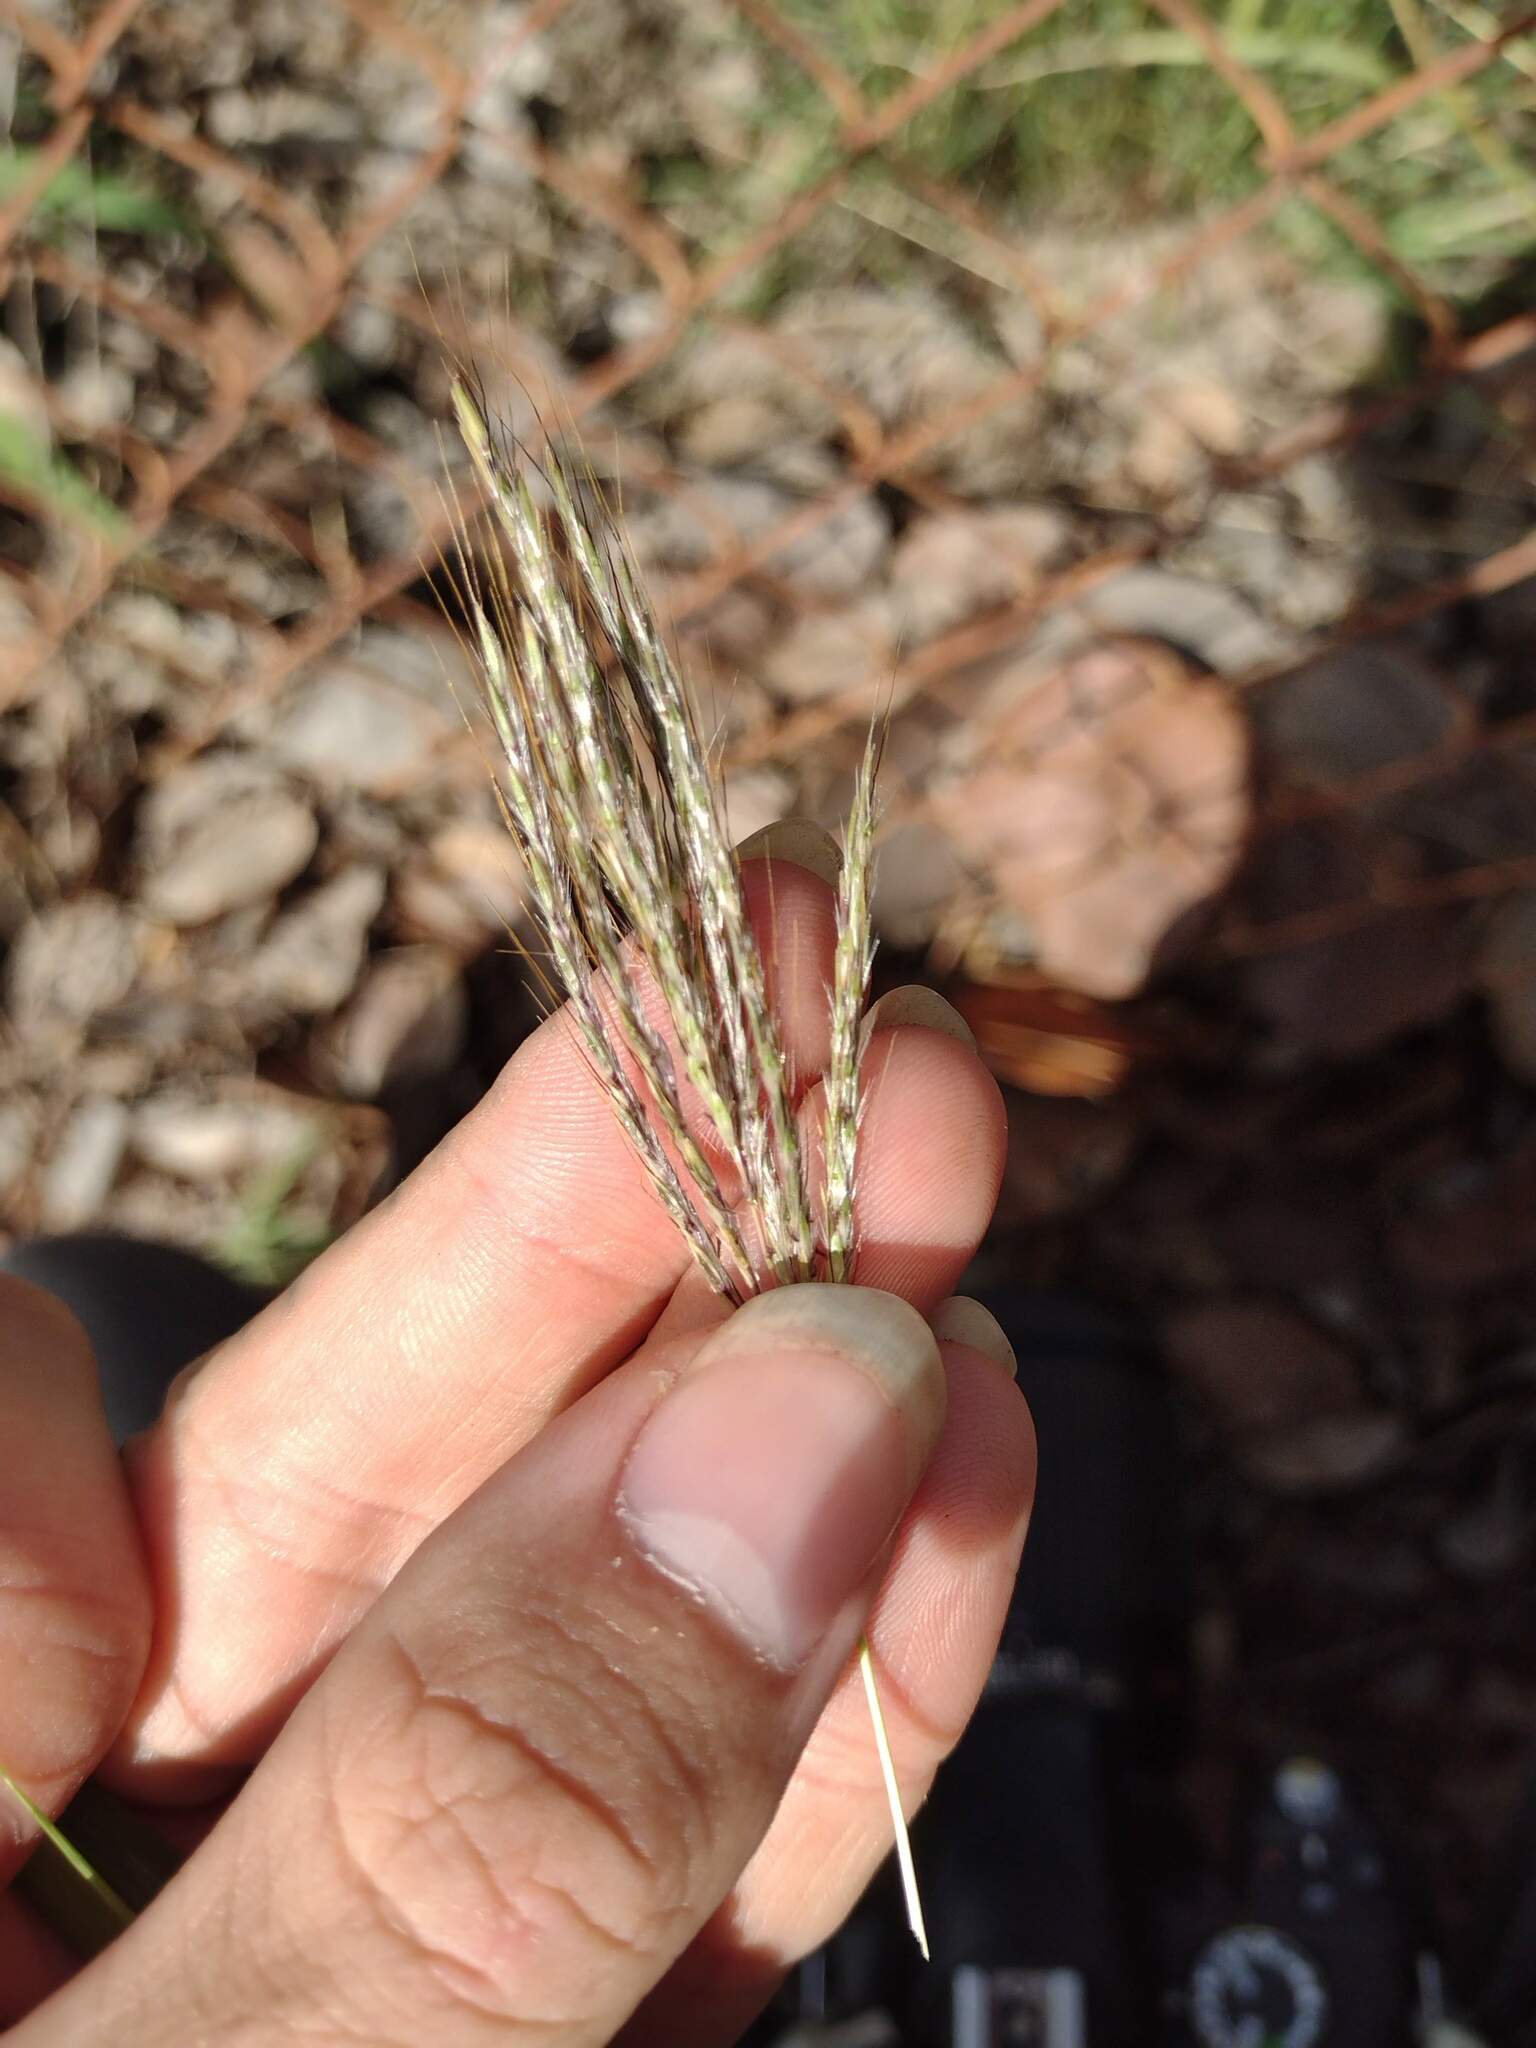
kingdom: Plantae
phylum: Tracheophyta
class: Liliopsida
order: Poales
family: Poaceae
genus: Bothriochloa
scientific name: Bothriochloa pertusa
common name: Pitted beardgrass
